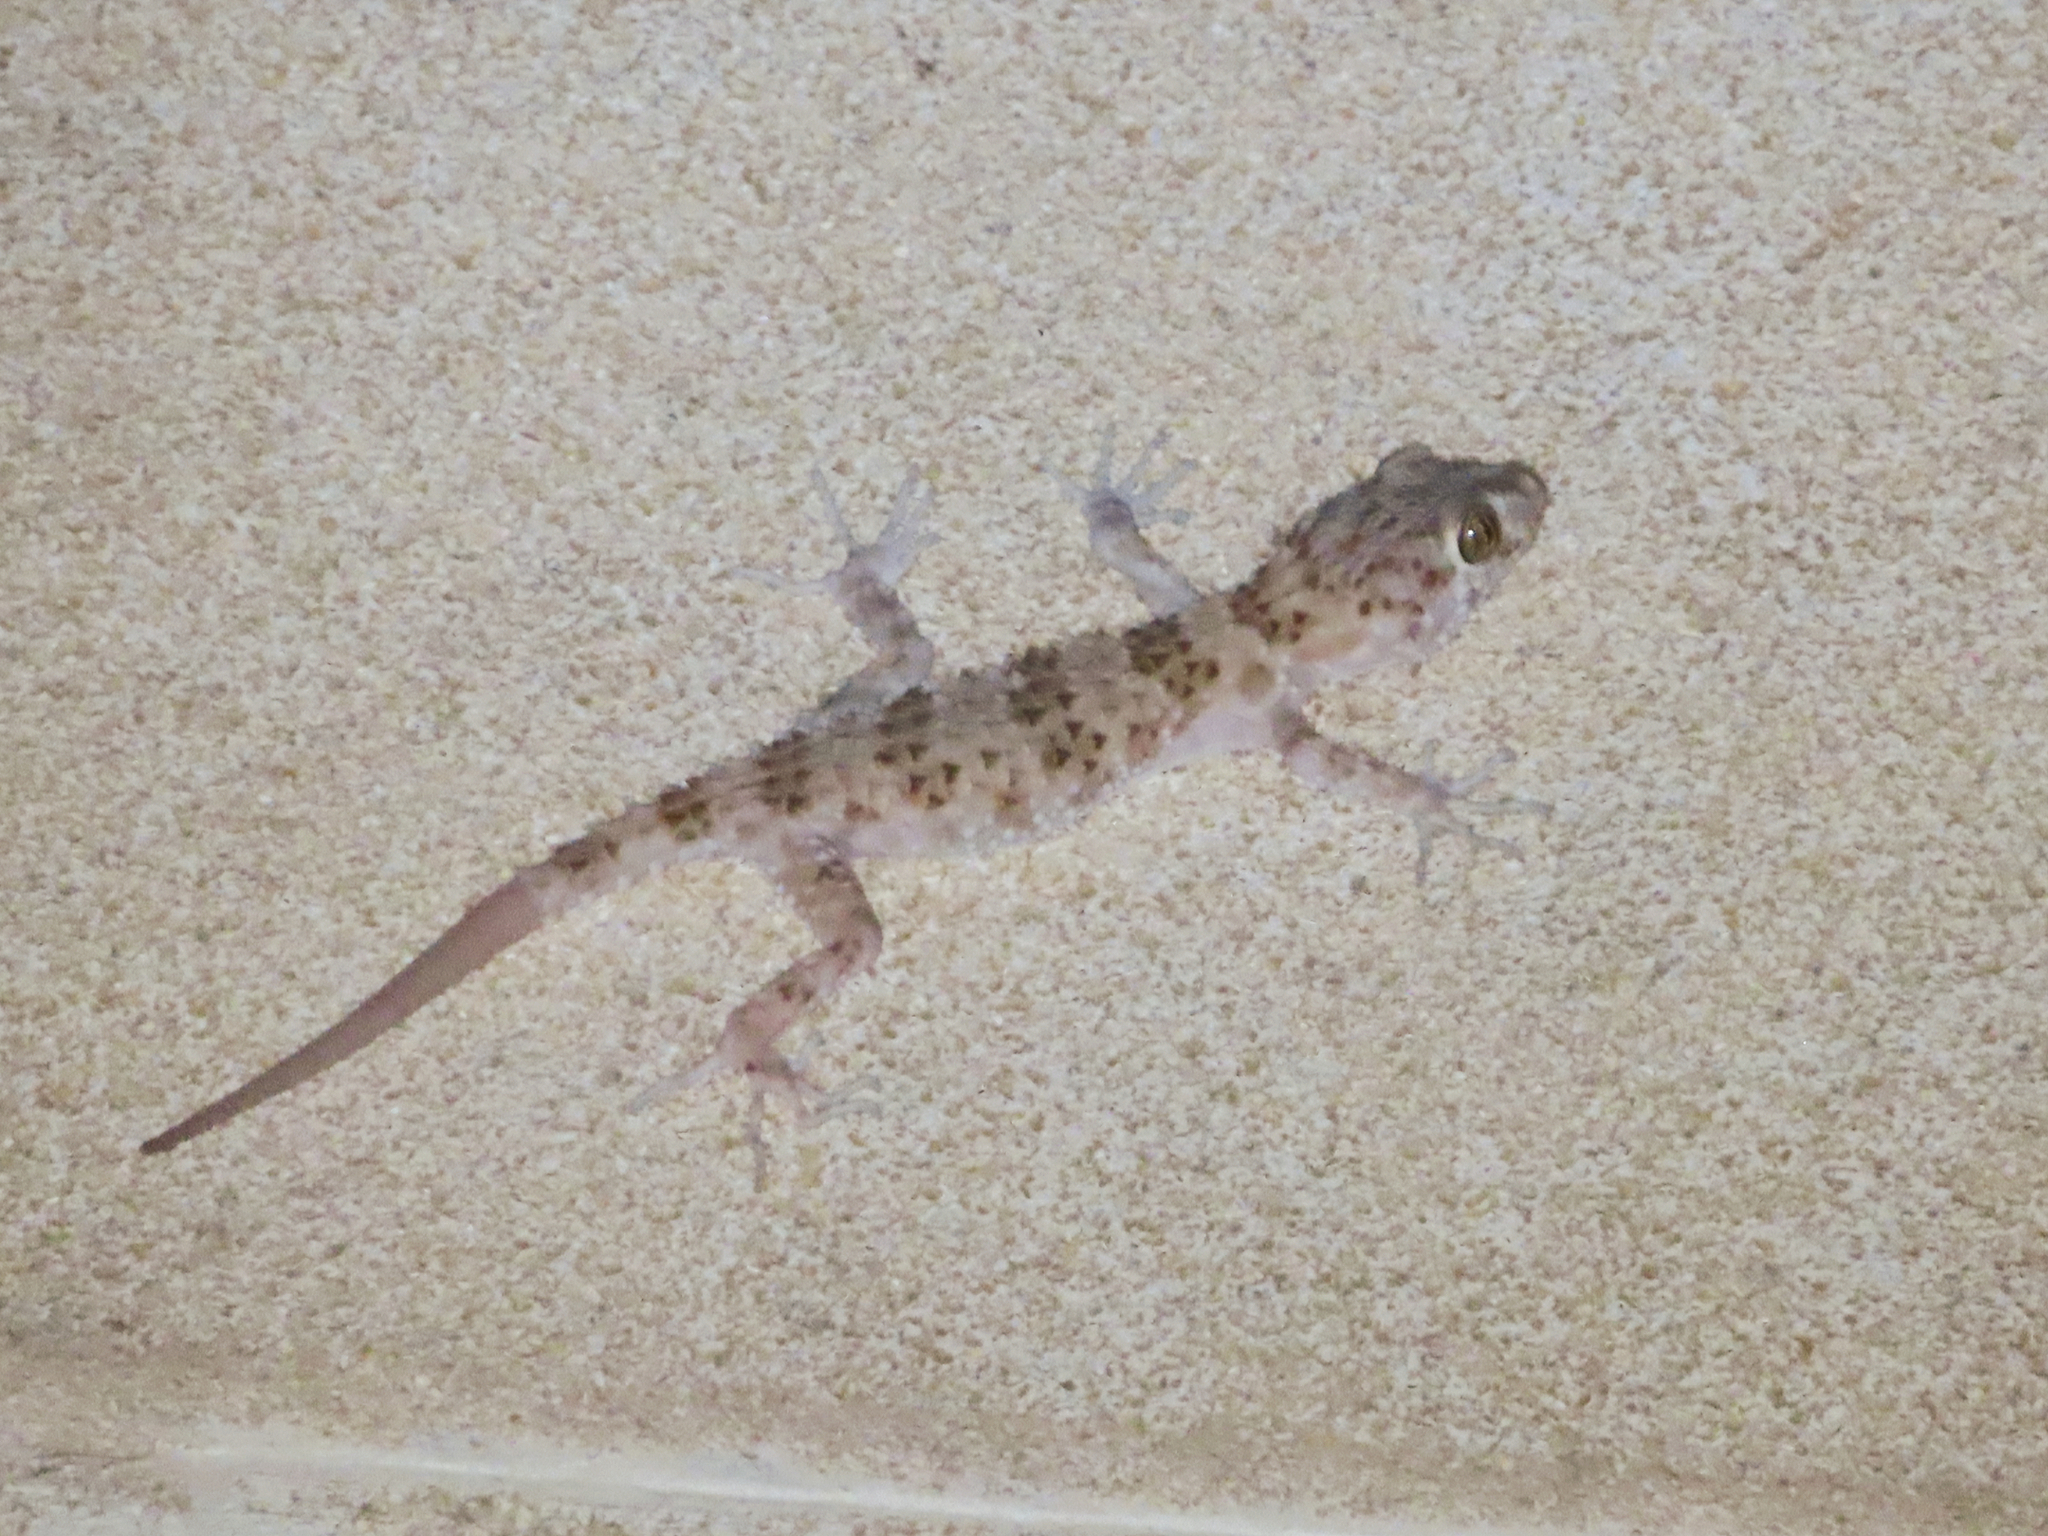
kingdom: Animalia
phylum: Chordata
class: Squamata
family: Gekkonidae
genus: Tenuidactylus
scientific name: Tenuidactylus caspius
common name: Caspian bent-toed gecko
